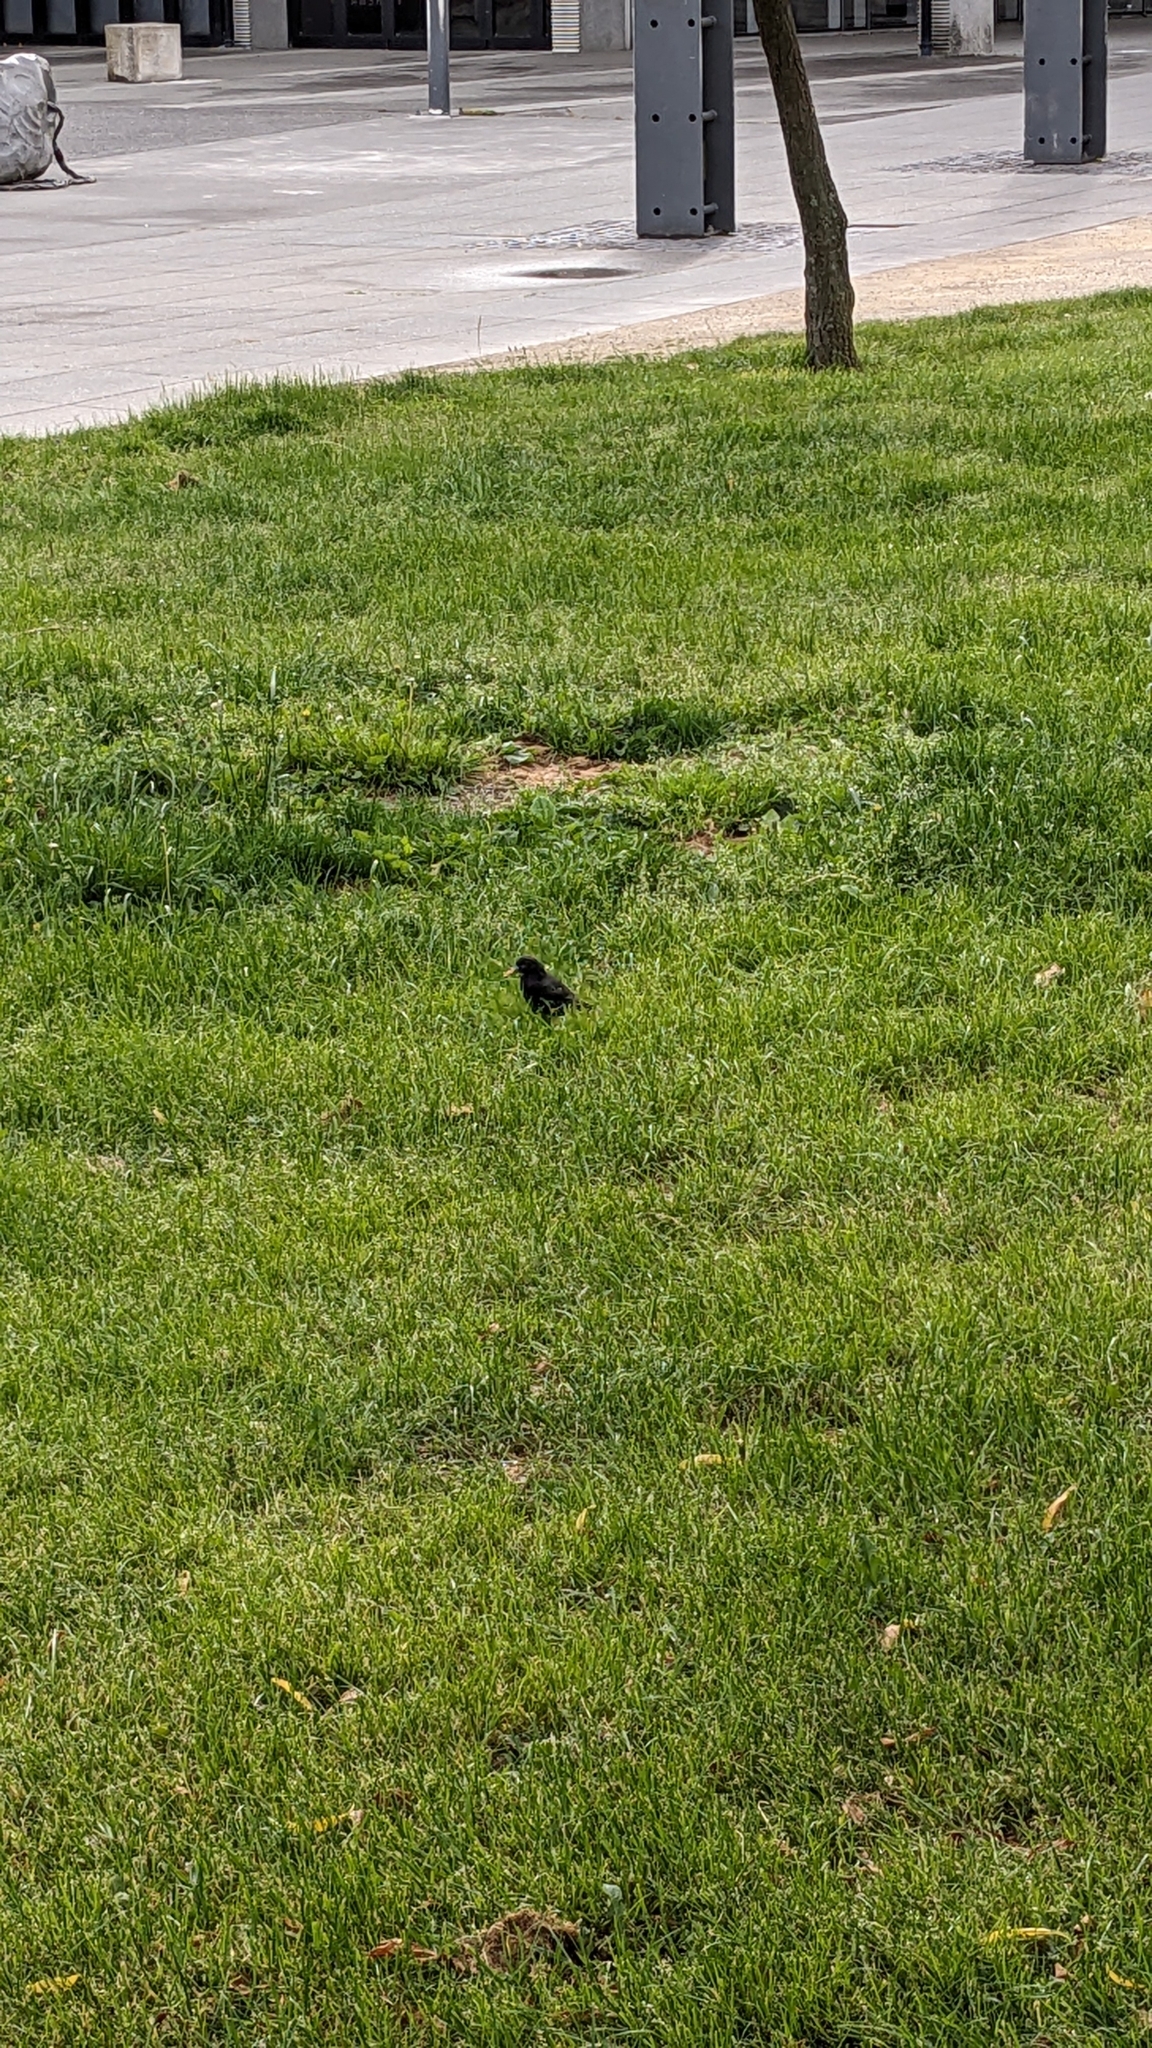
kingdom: Animalia
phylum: Chordata
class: Aves
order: Passeriformes
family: Sturnidae
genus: Sturnus
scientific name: Sturnus vulgaris
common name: Common starling
